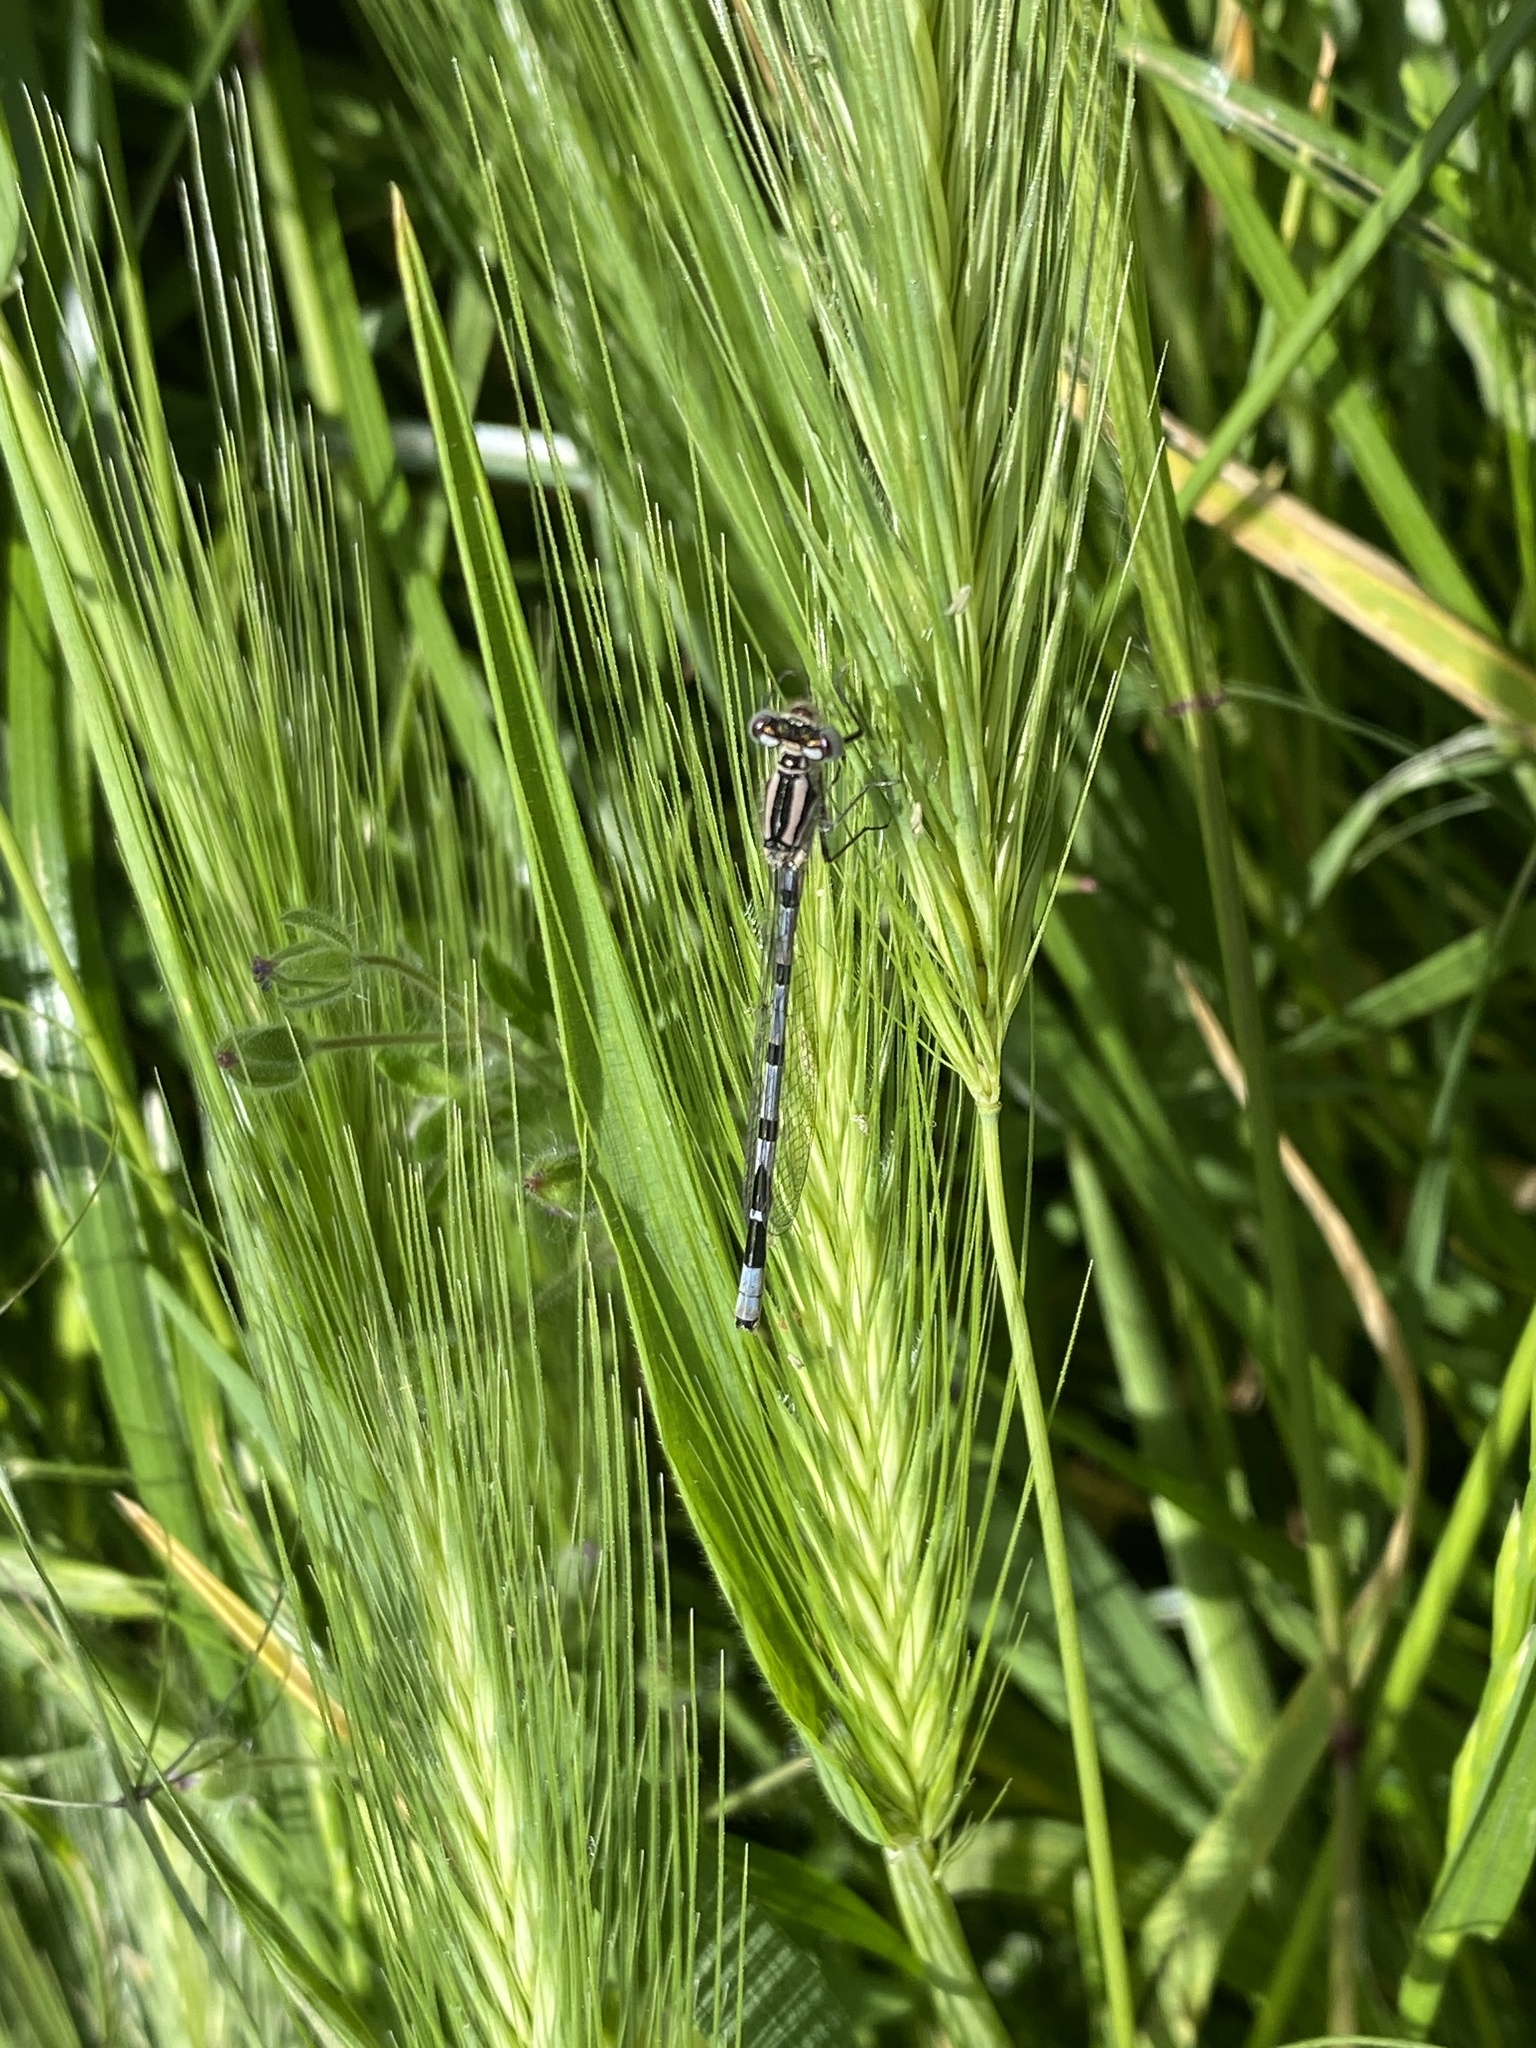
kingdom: Animalia
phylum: Arthropoda
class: Insecta
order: Odonata
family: Coenagrionidae
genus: Enallagma
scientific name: Enallagma cyathigerum
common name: Common blue damselfly
